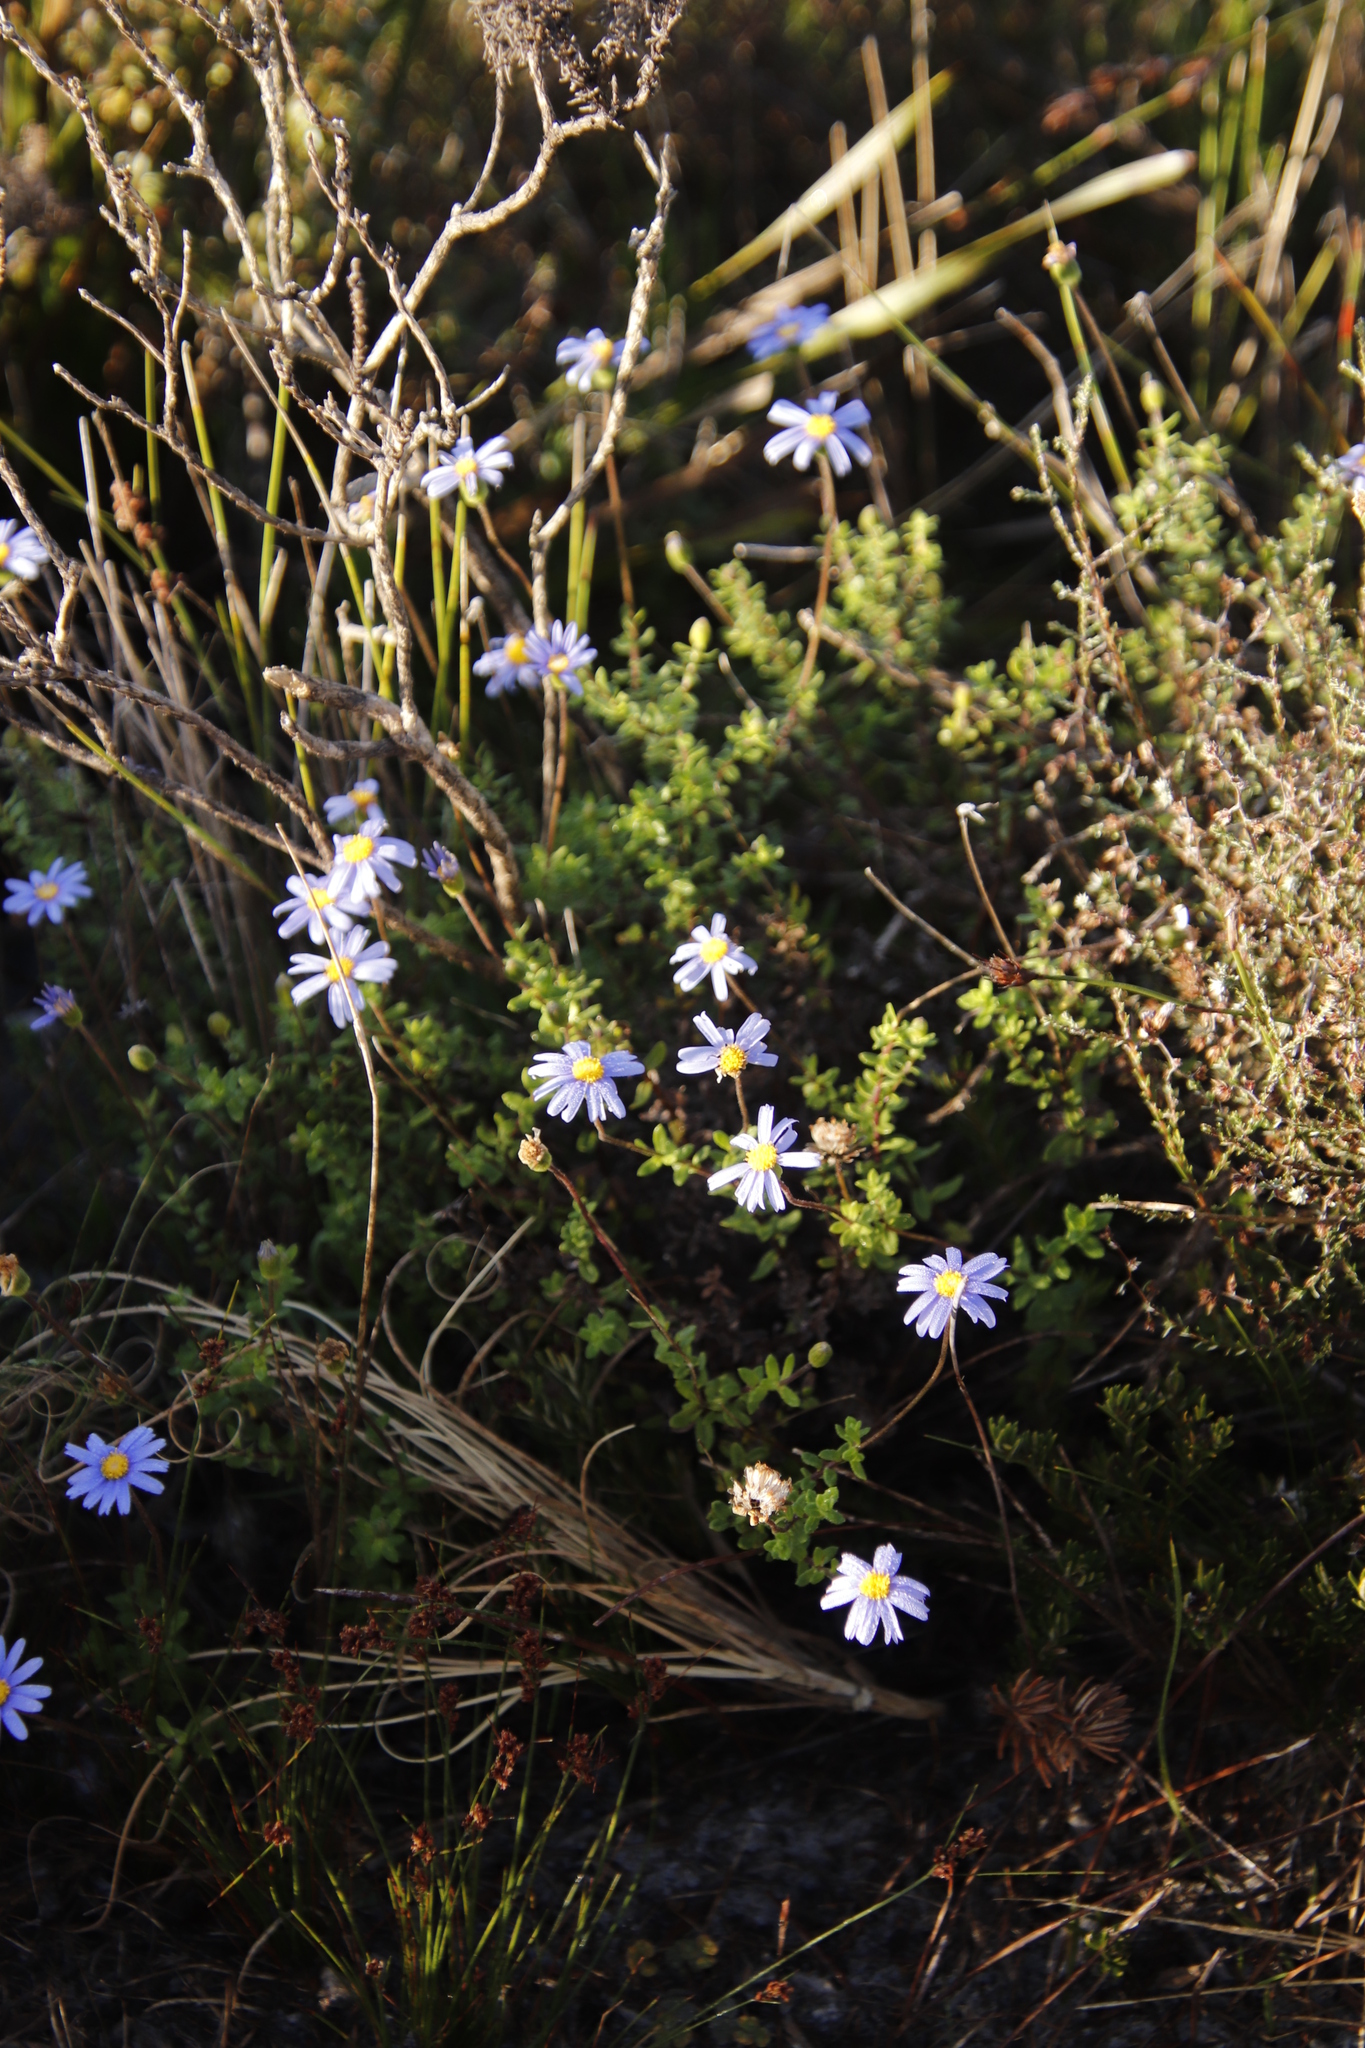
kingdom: Plantae
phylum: Tracheophyta
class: Magnoliopsida
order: Asterales
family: Asteraceae
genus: Felicia
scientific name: Felicia aethiopica
